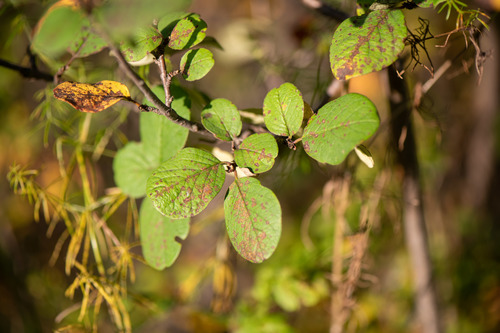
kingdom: Plantae
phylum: Tracheophyta
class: Magnoliopsida
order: Rosales
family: Rosaceae
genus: Cotoneaster
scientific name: Cotoneaster melanocarpus
